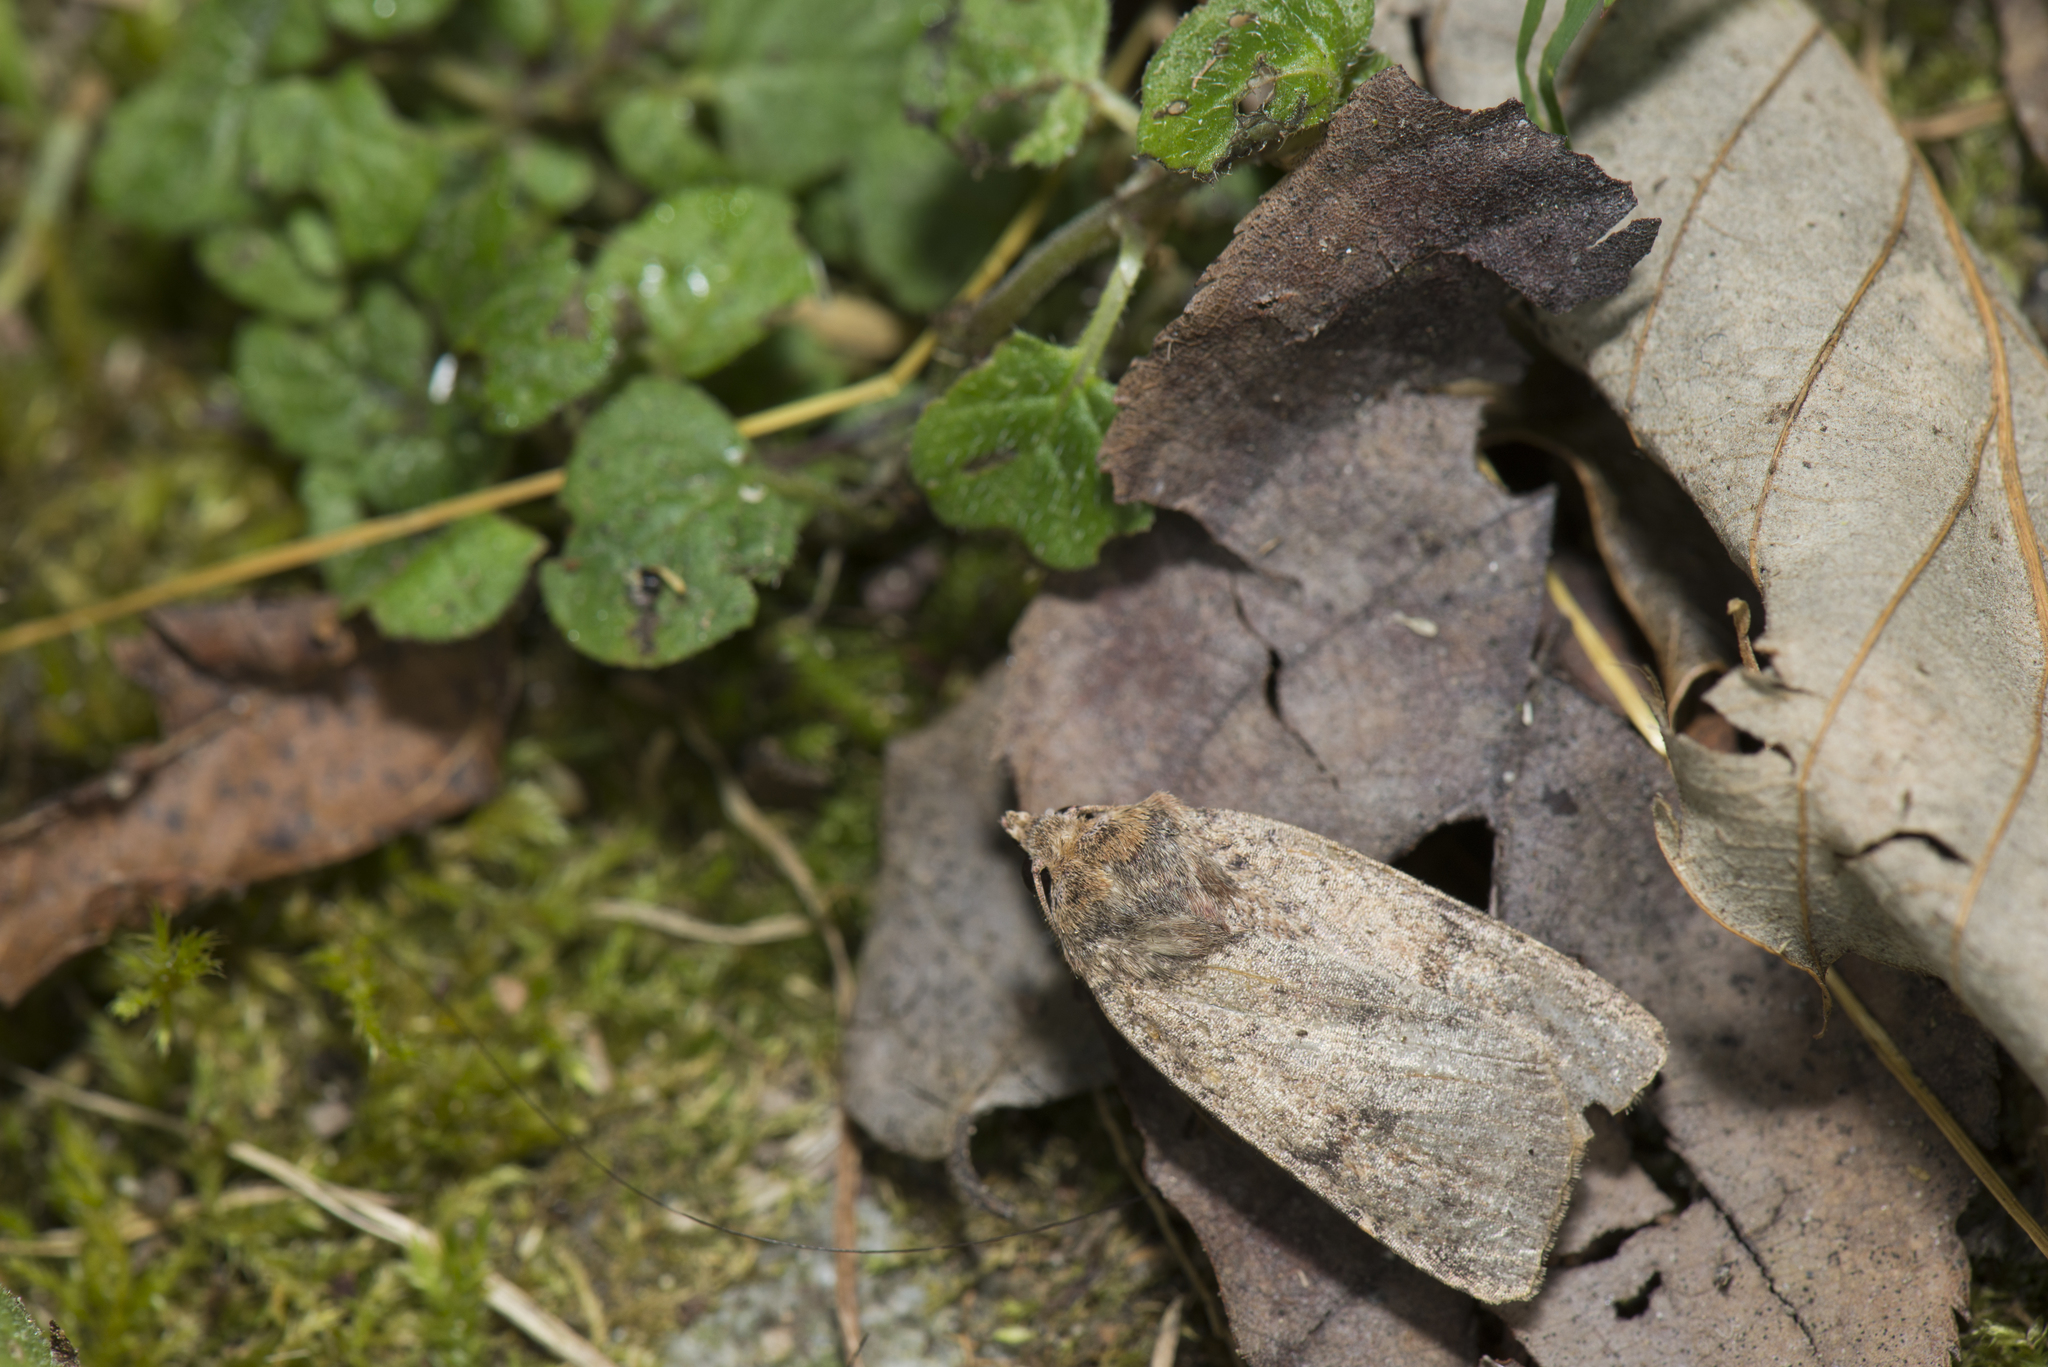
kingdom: Animalia
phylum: Arthropoda
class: Insecta
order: Lepidoptera
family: Noctuidae
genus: Diarsia
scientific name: Diarsia unica
